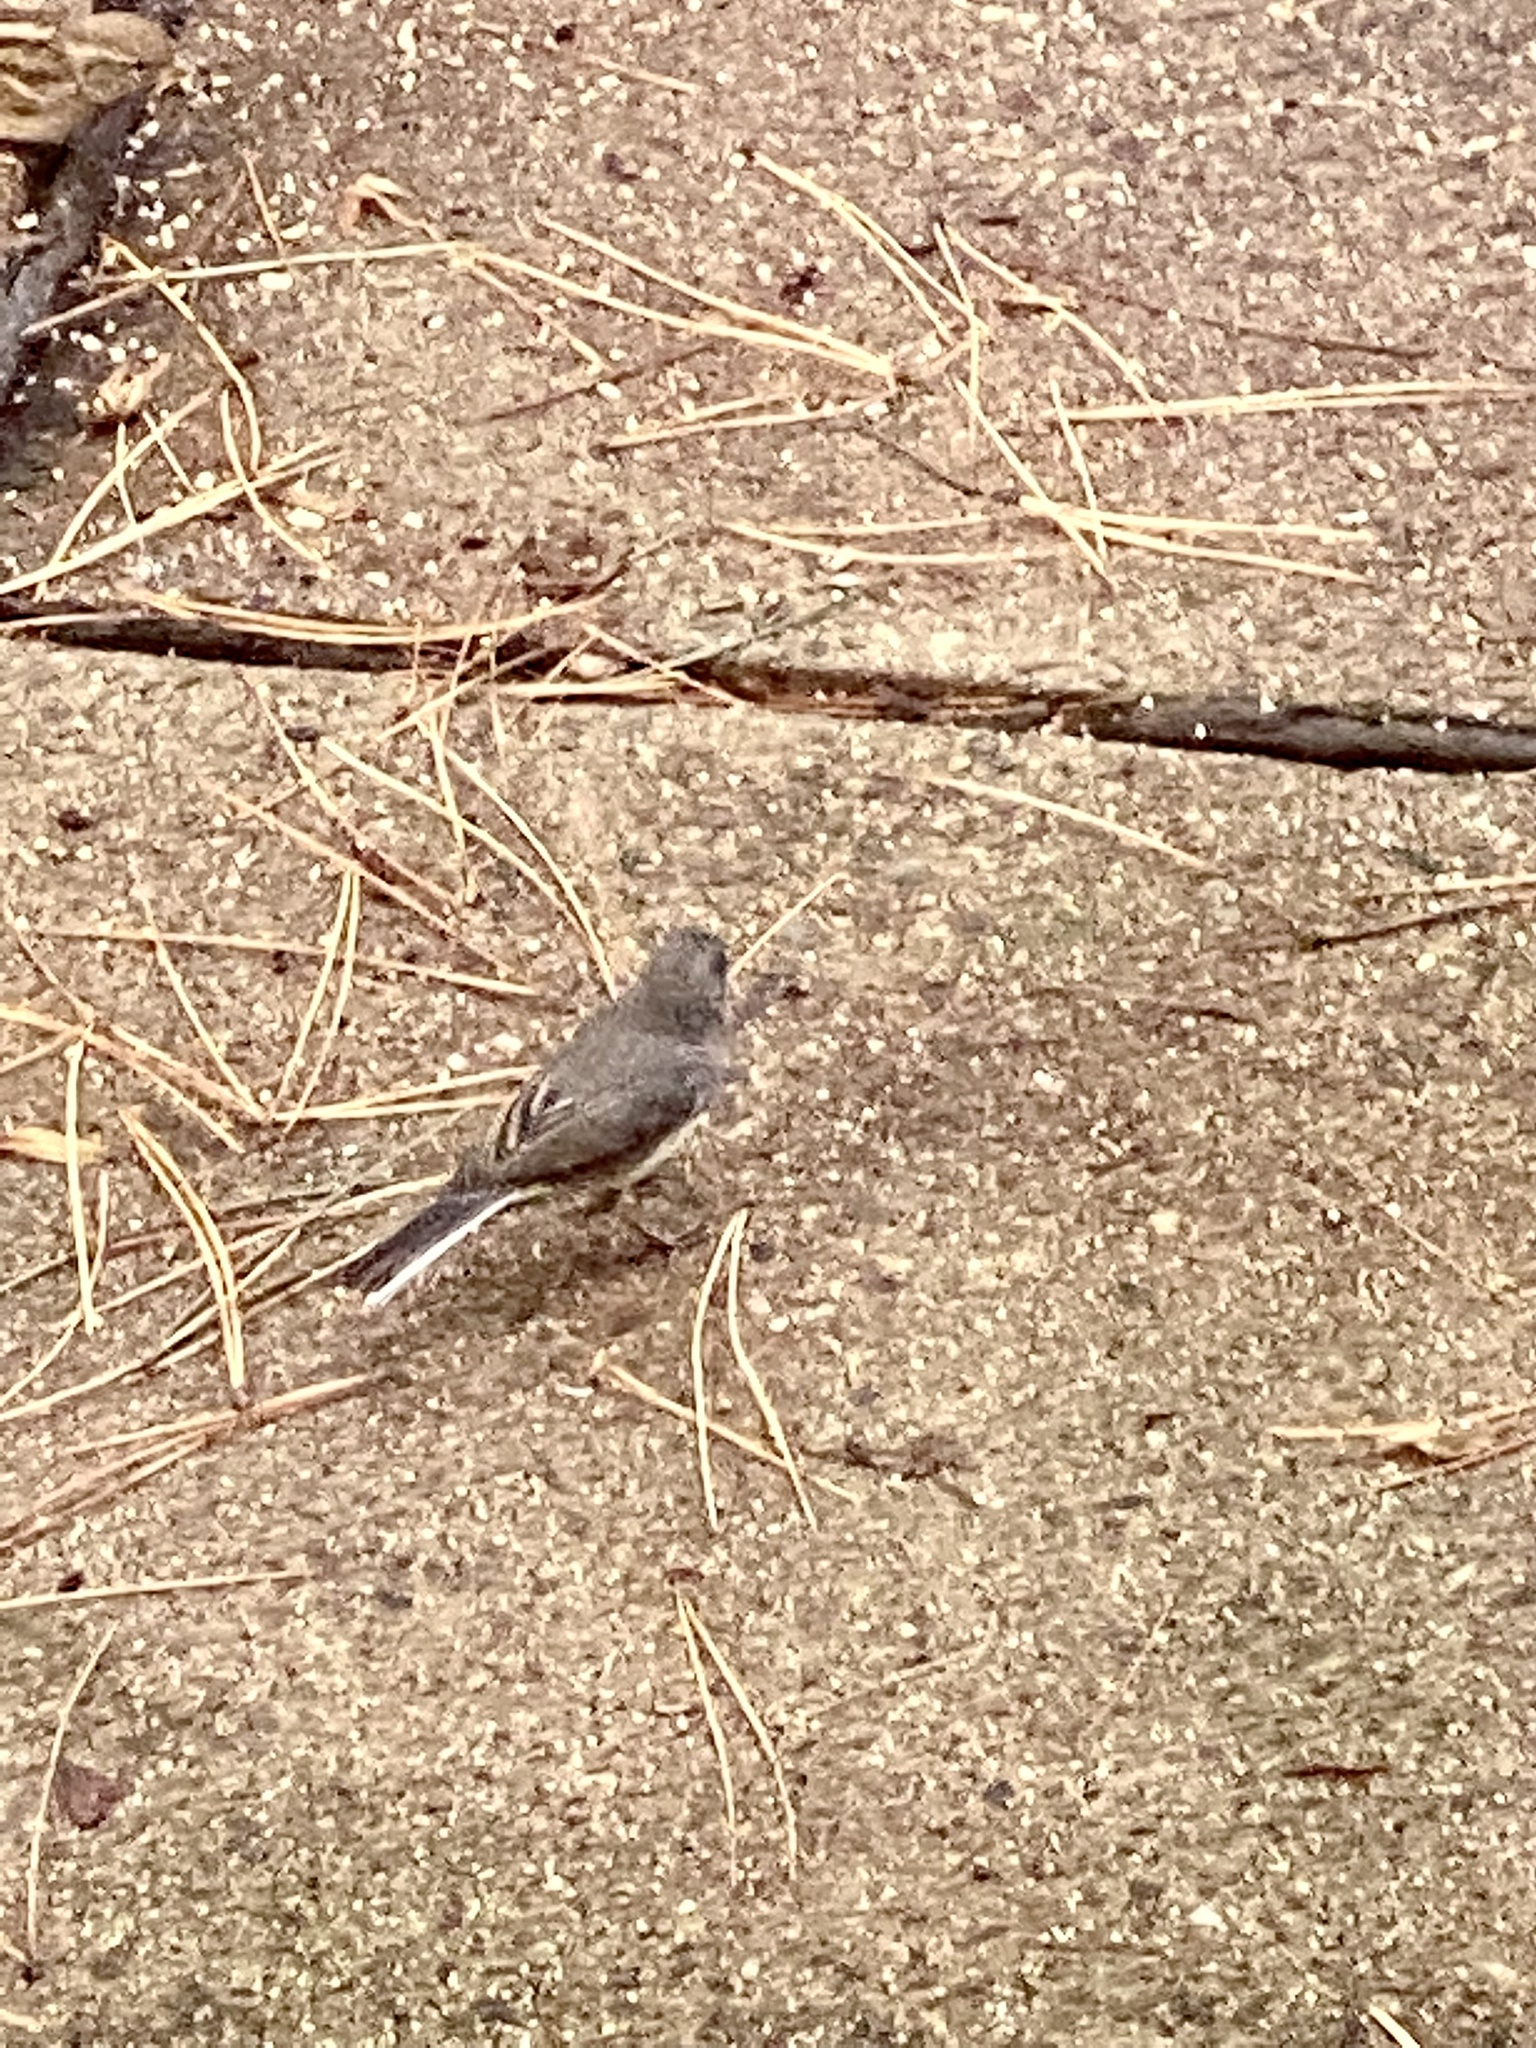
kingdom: Animalia
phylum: Chordata
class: Aves
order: Passeriformes
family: Passerellidae
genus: Junco
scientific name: Junco hyemalis
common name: Dark-eyed junco
